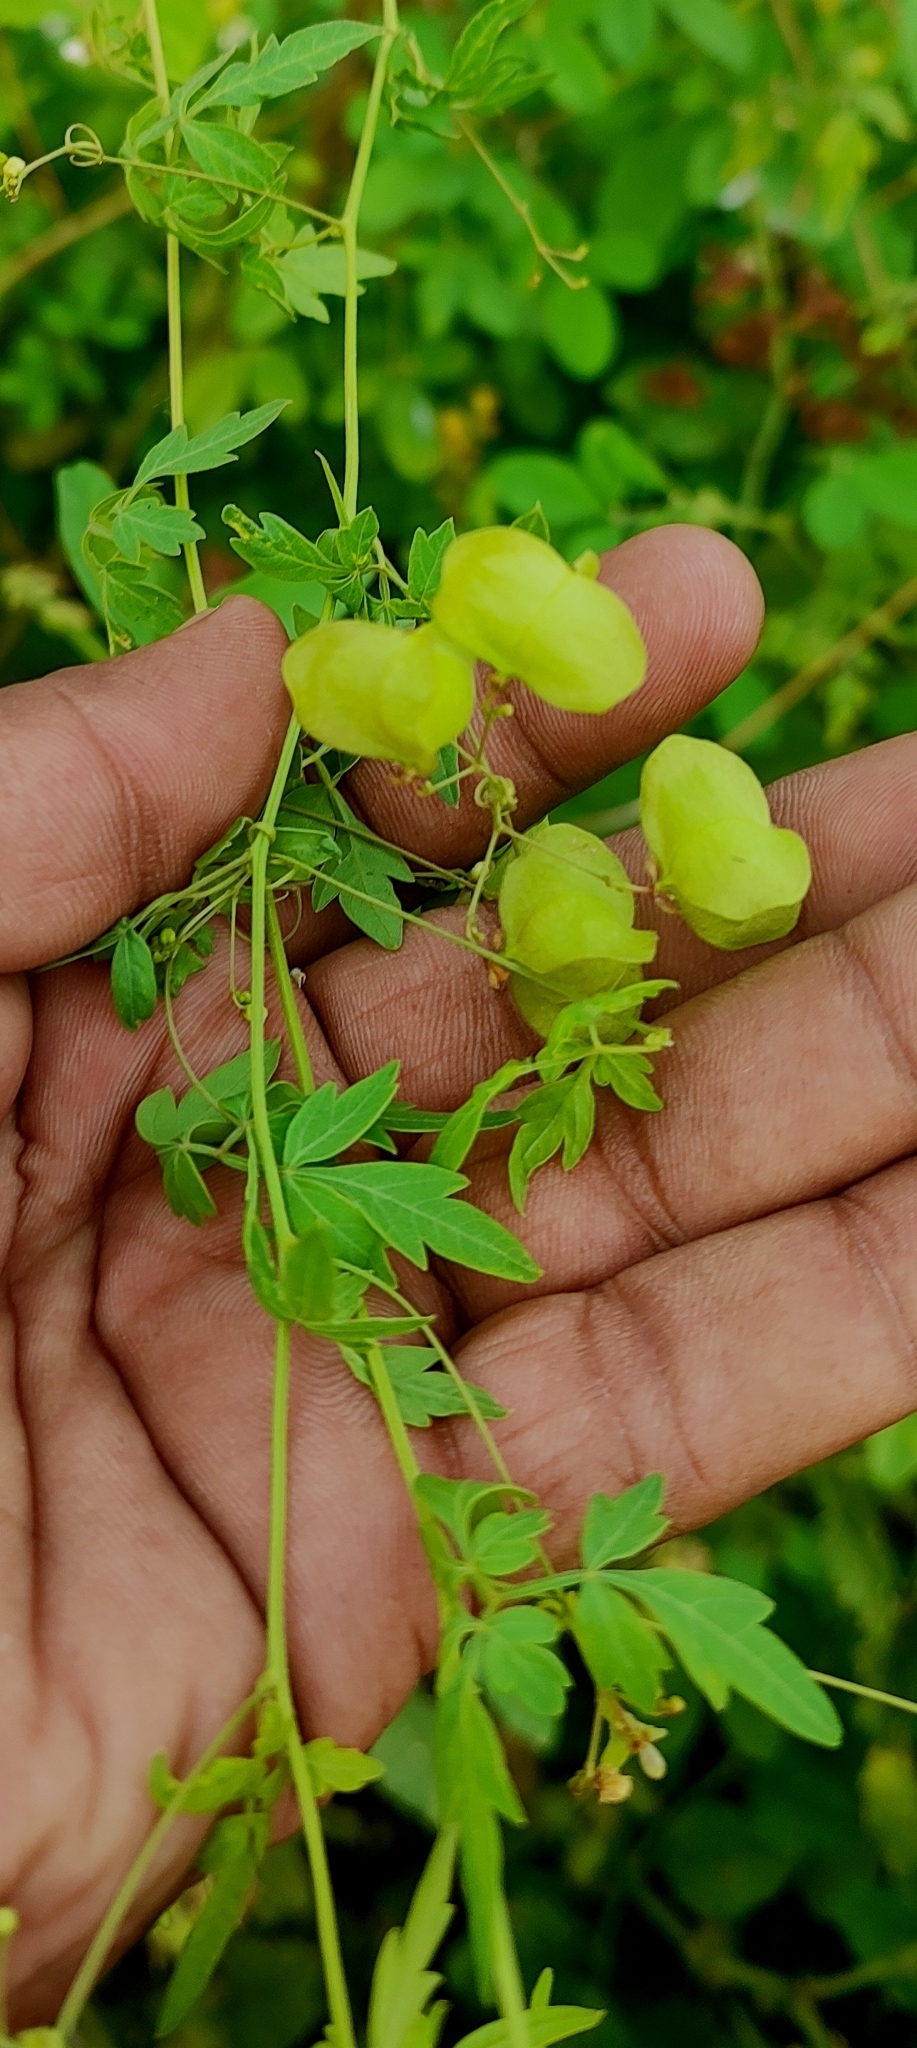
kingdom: Plantae
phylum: Tracheophyta
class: Magnoliopsida
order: Sapindales
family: Sapindaceae
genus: Cardiospermum
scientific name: Cardiospermum halicacabum
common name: Balloon vine
